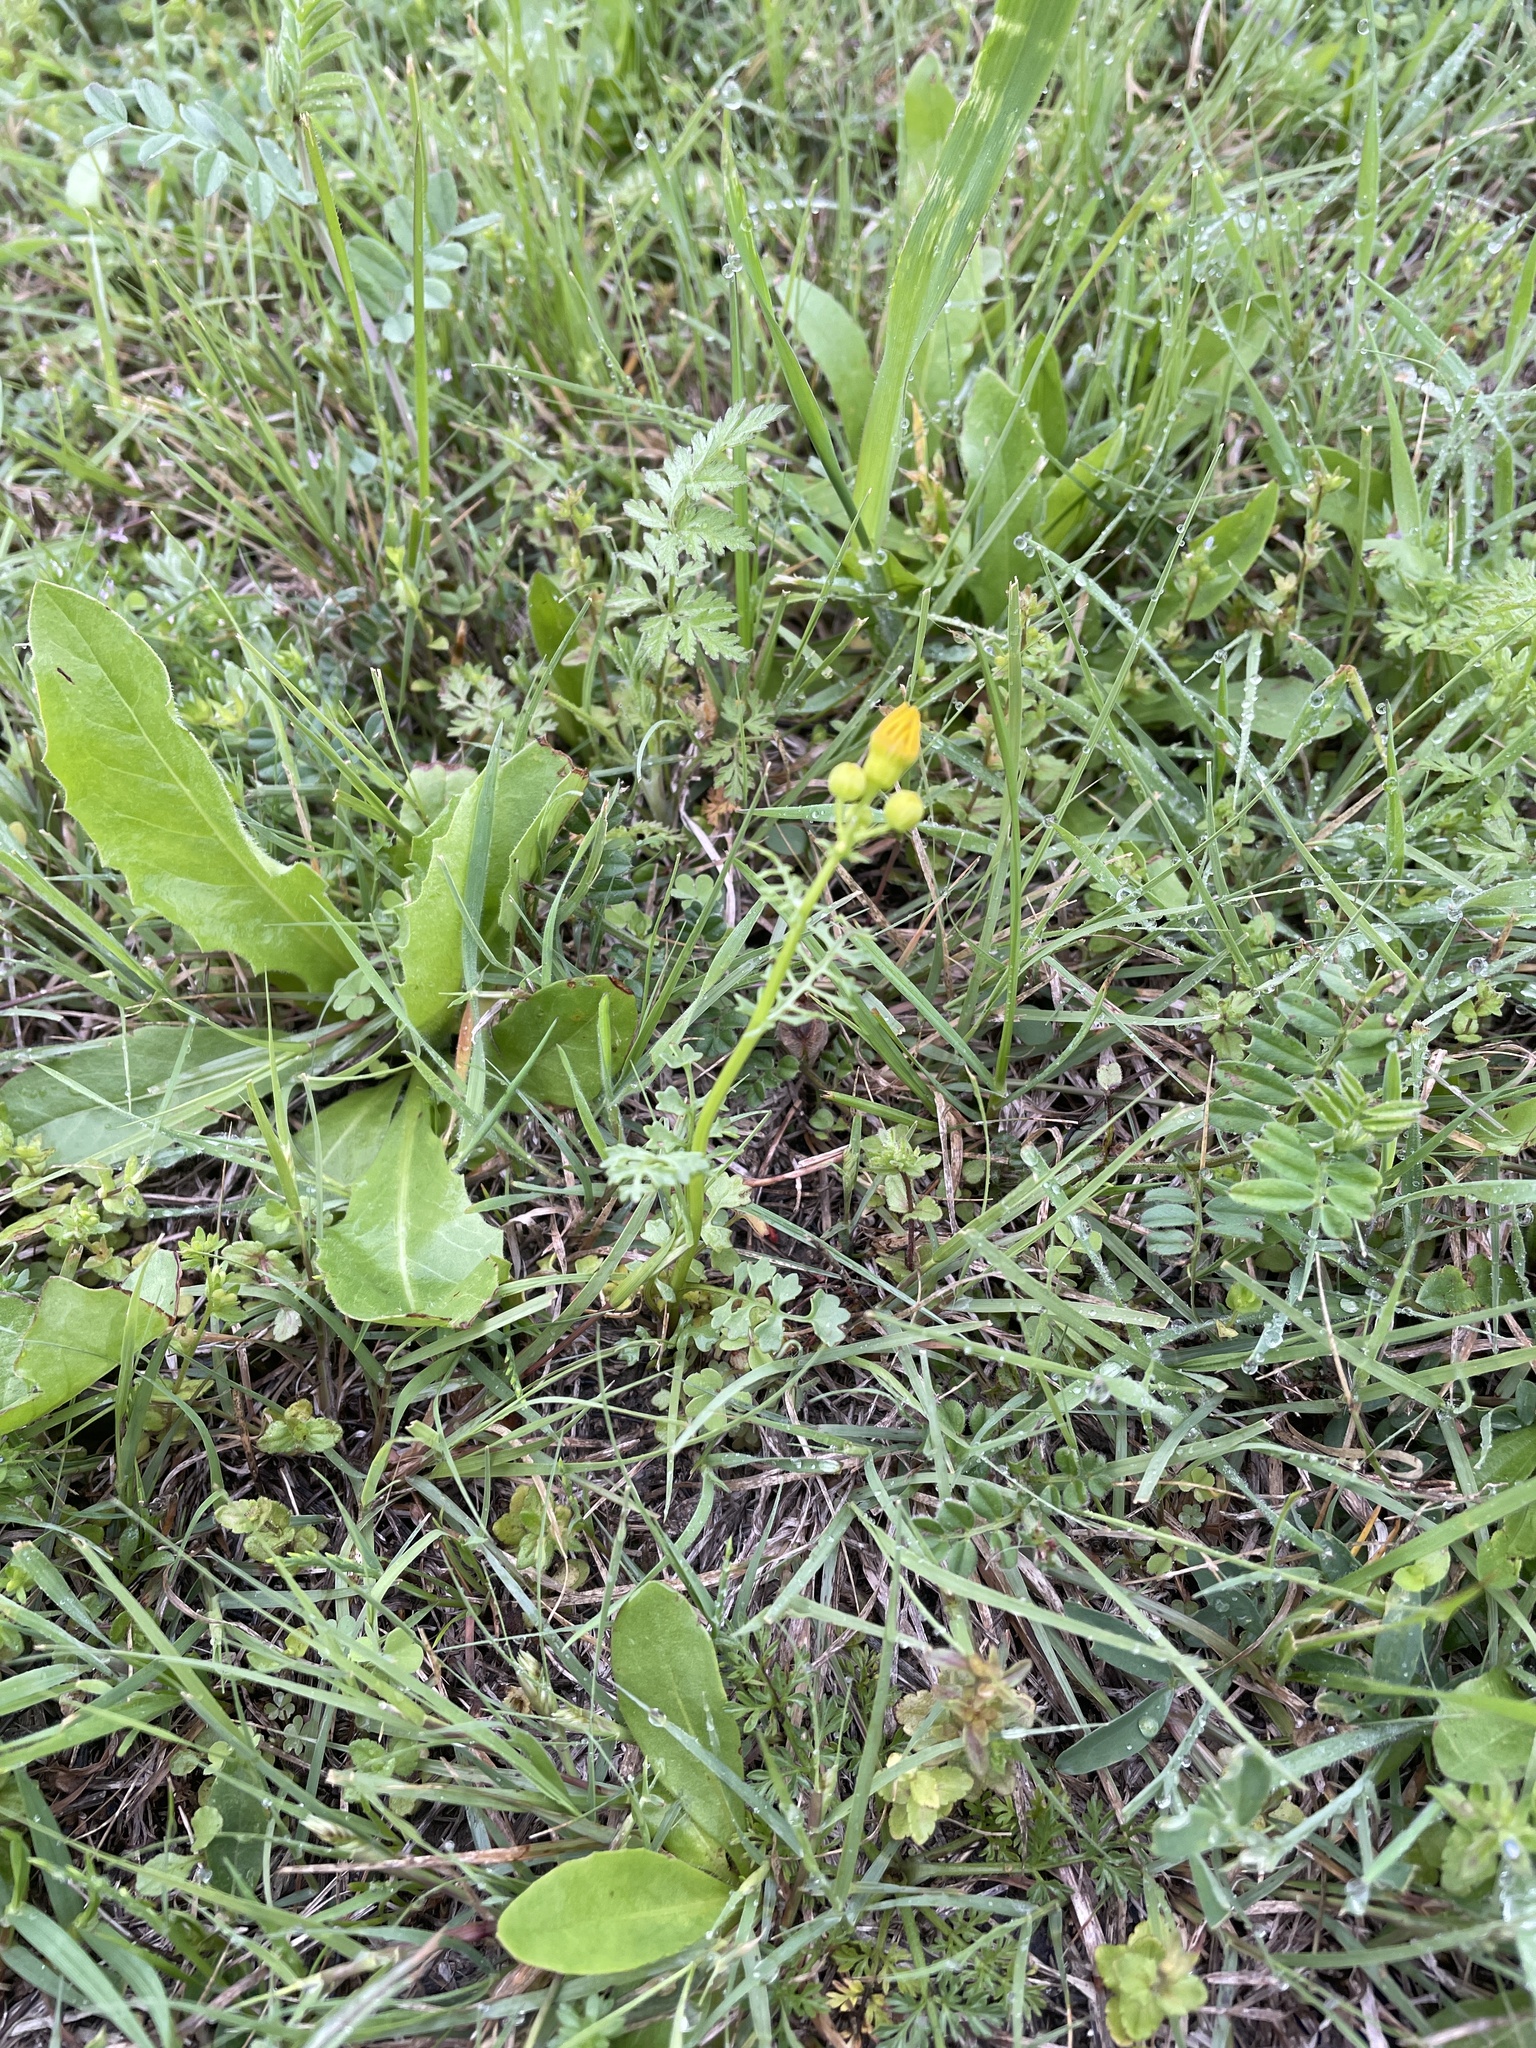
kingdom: Plantae
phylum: Tracheophyta
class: Magnoliopsida
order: Asterales
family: Asteraceae
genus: Packera
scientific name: Packera tampicana
